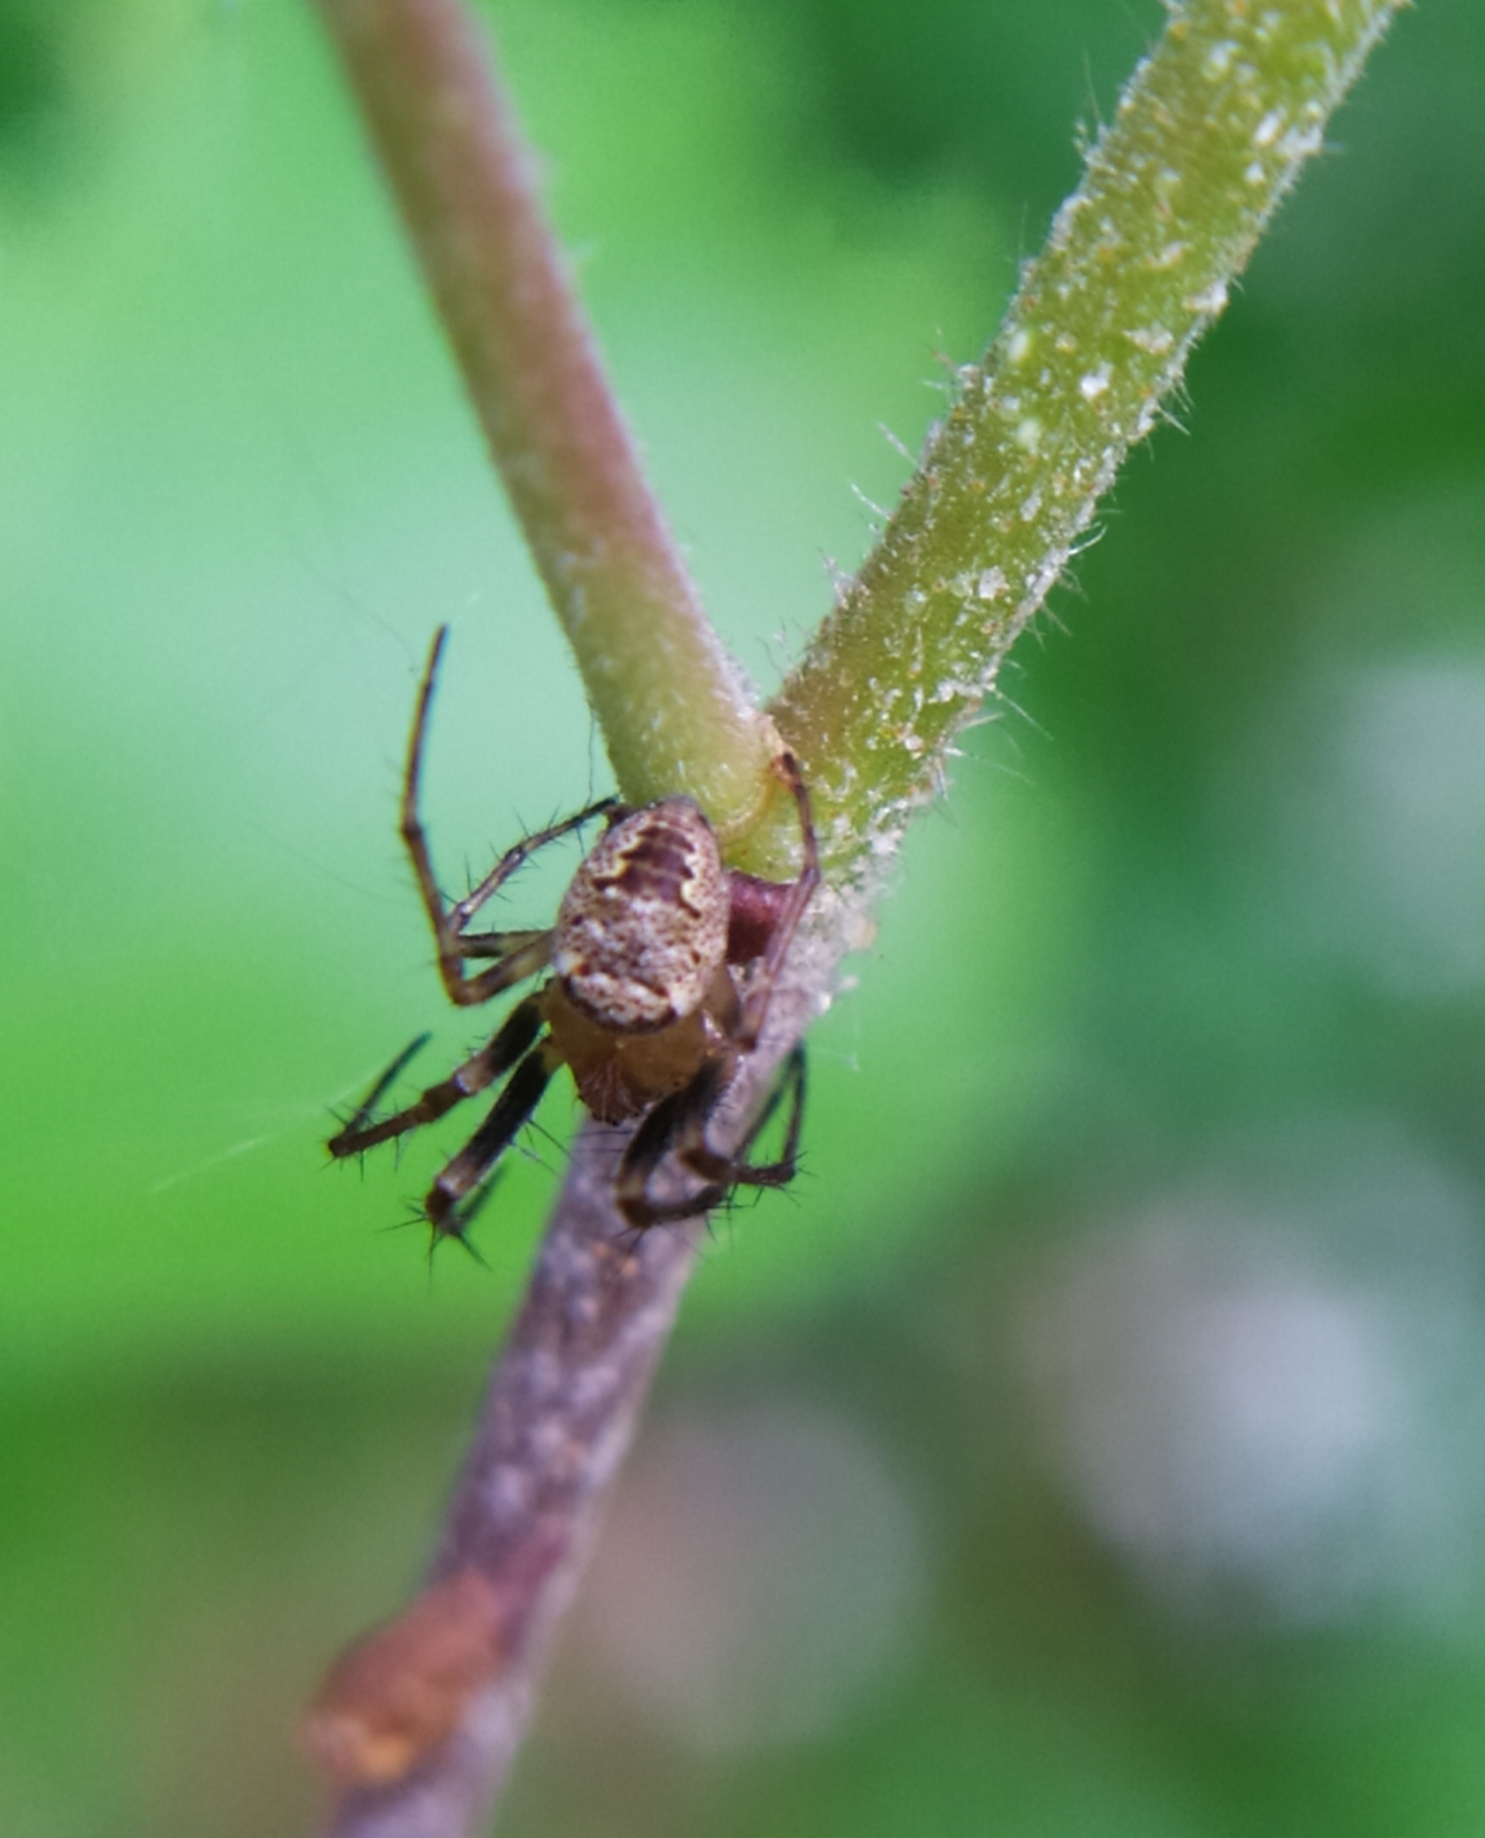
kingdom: Animalia
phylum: Arthropoda
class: Arachnida
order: Araneae
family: Araneidae
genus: Zilla
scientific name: Zilla diodia
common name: Zilla diodia
